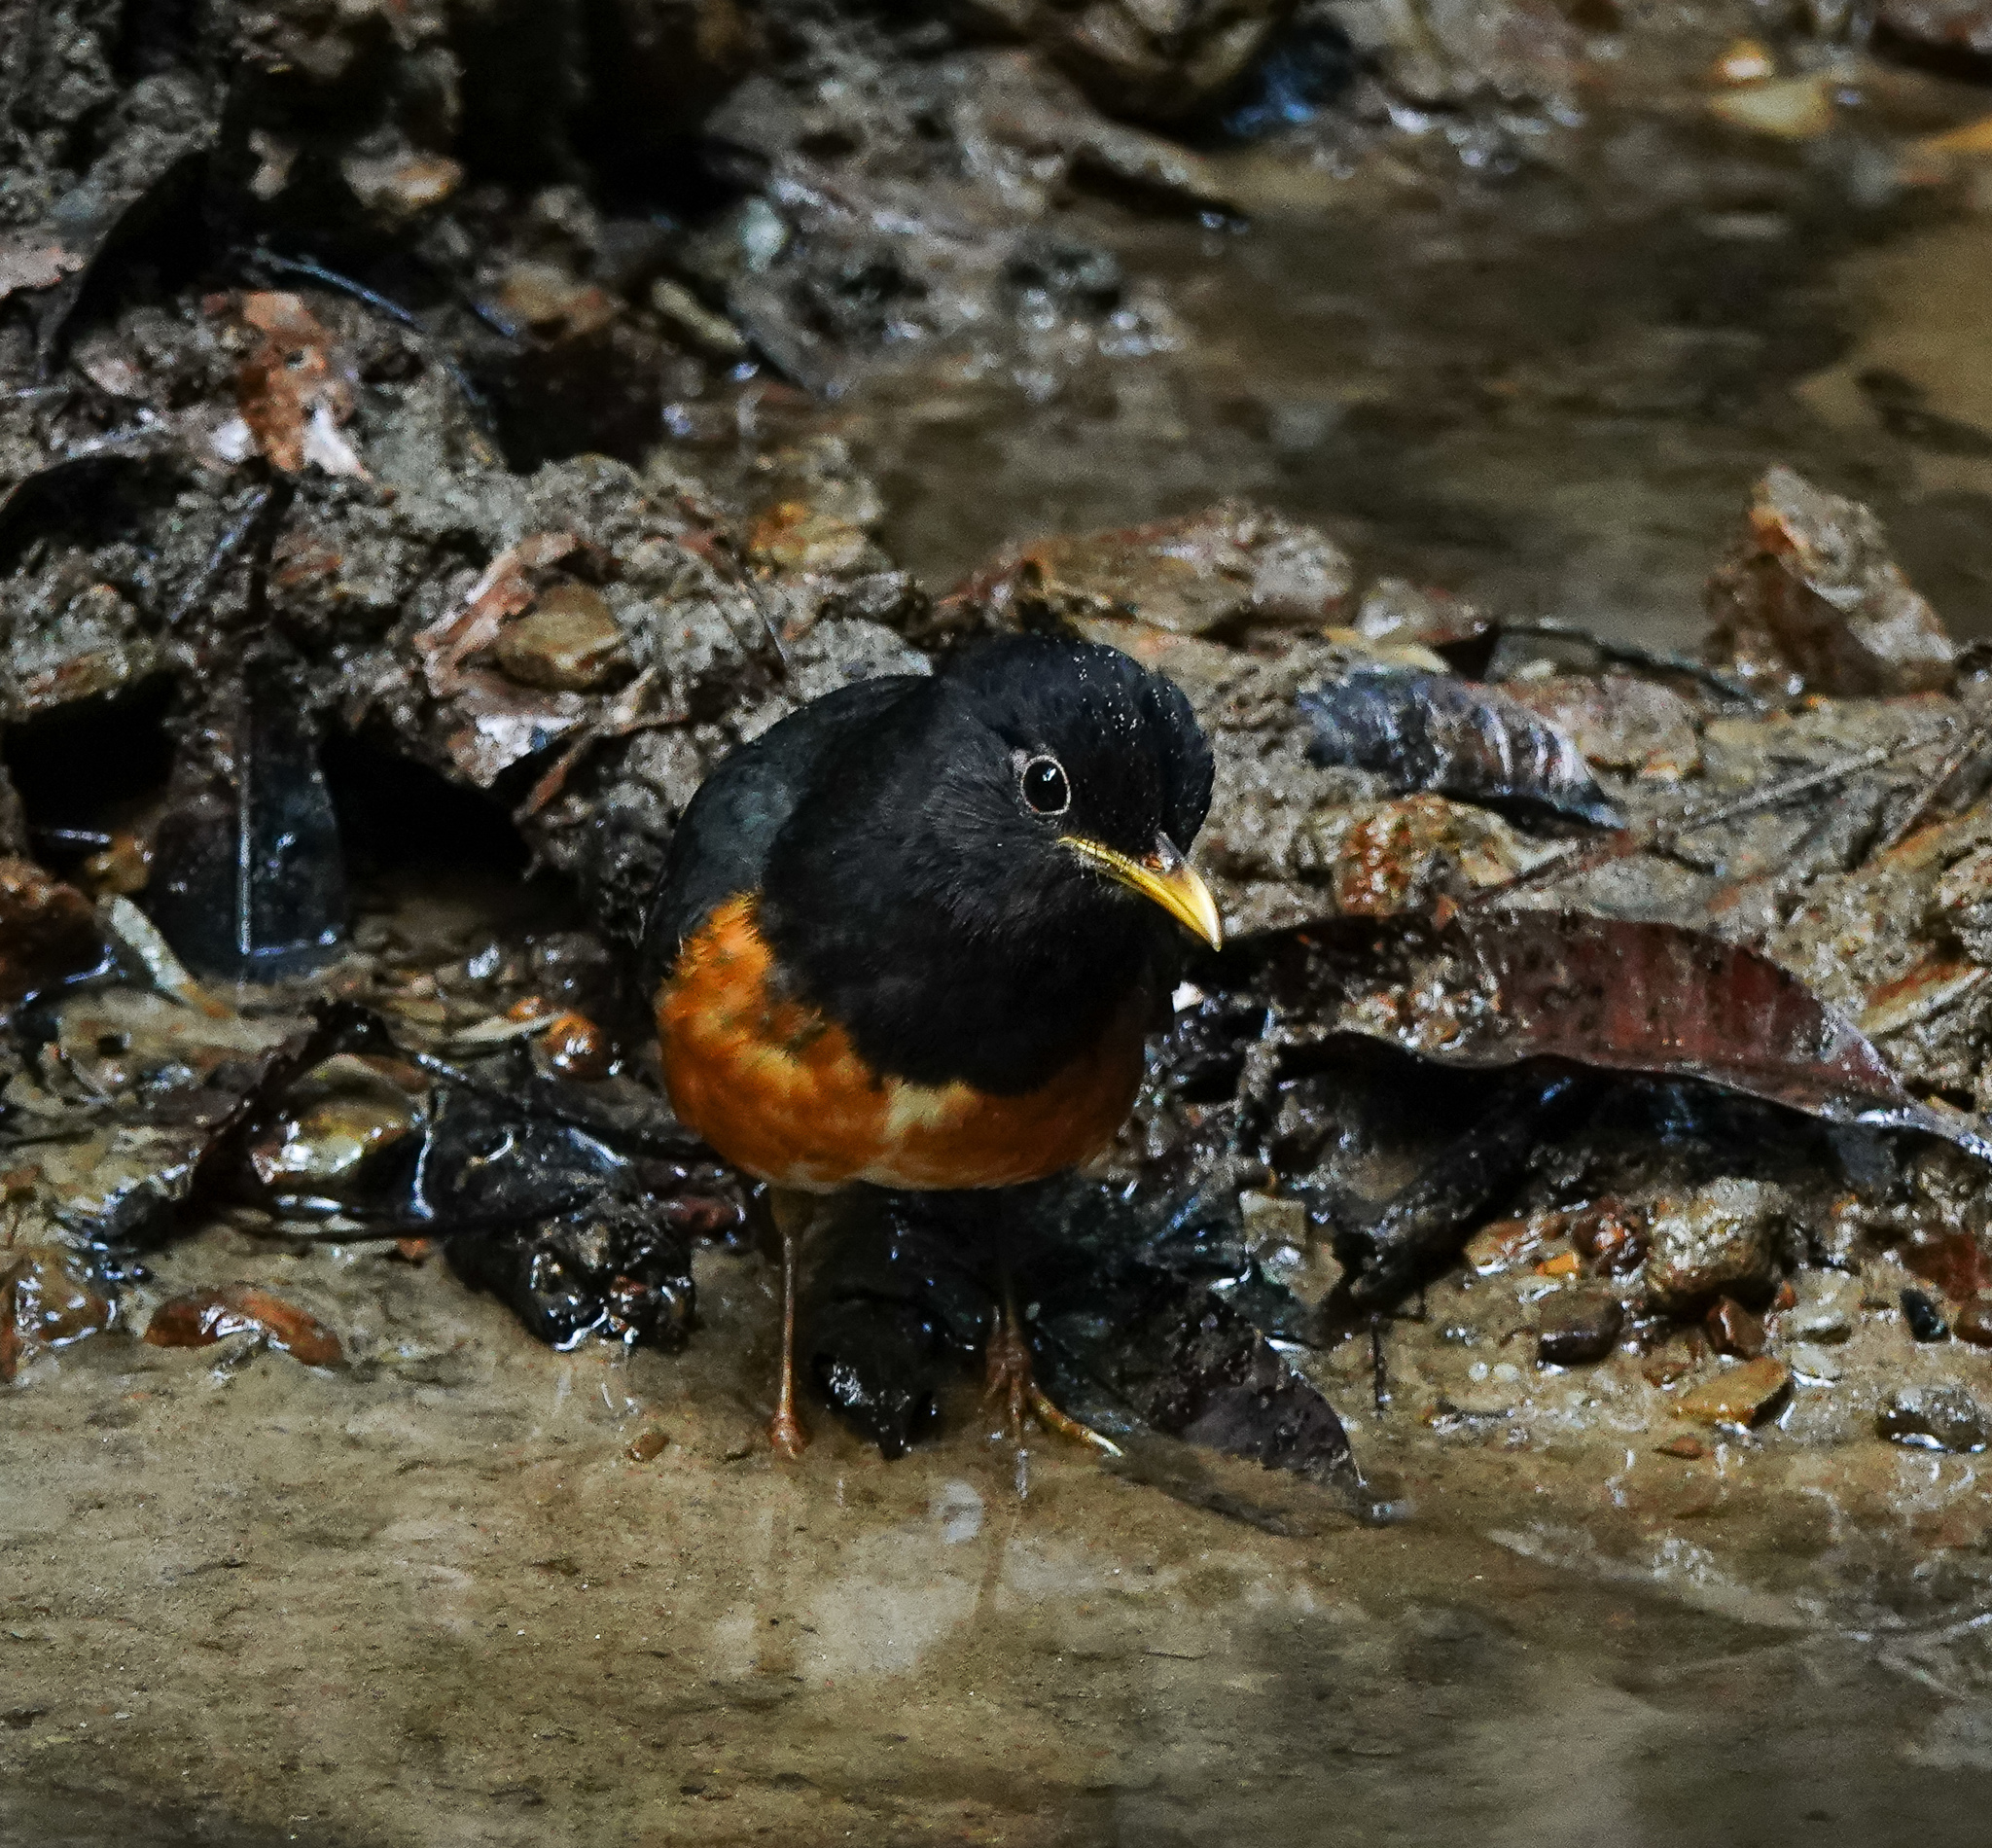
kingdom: Animalia
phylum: Chordata
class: Aves
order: Passeriformes
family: Turdidae
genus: Turdus
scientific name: Turdus dissimilis
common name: Black-breasted thrush
